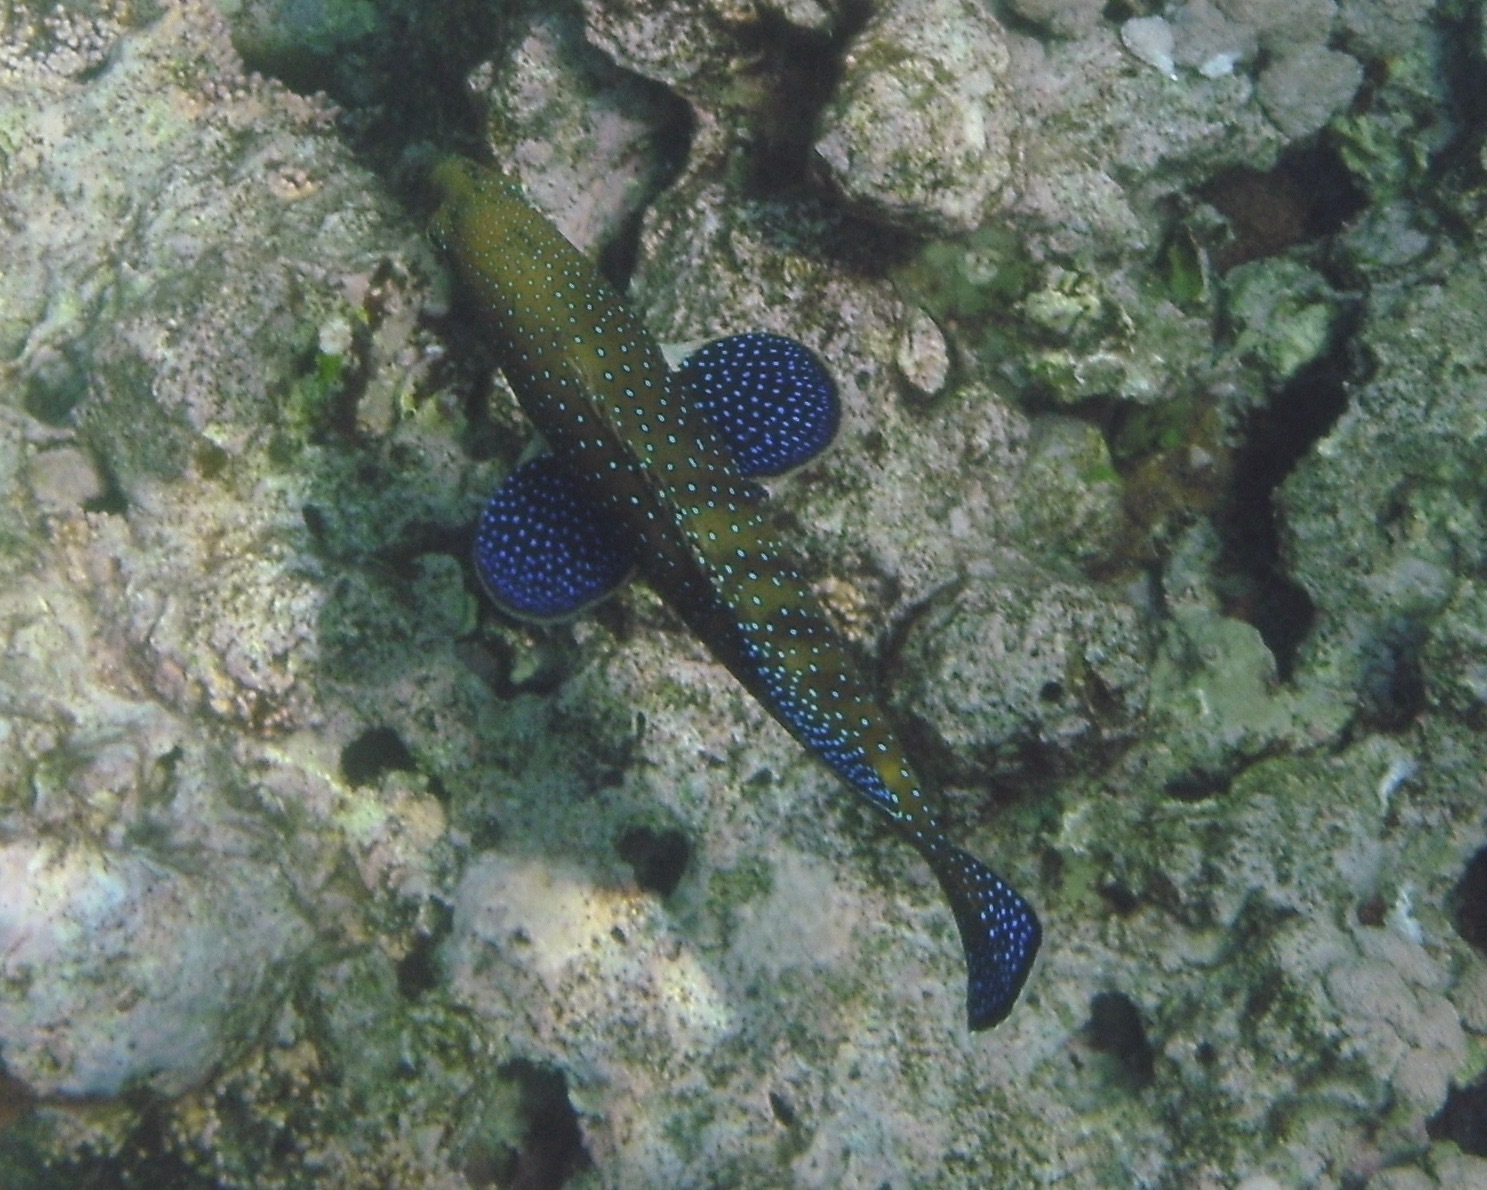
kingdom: Animalia
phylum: Chordata
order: Perciformes
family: Serranidae
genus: Cephalopholis
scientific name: Cephalopholis argus
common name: Peacock grouper
